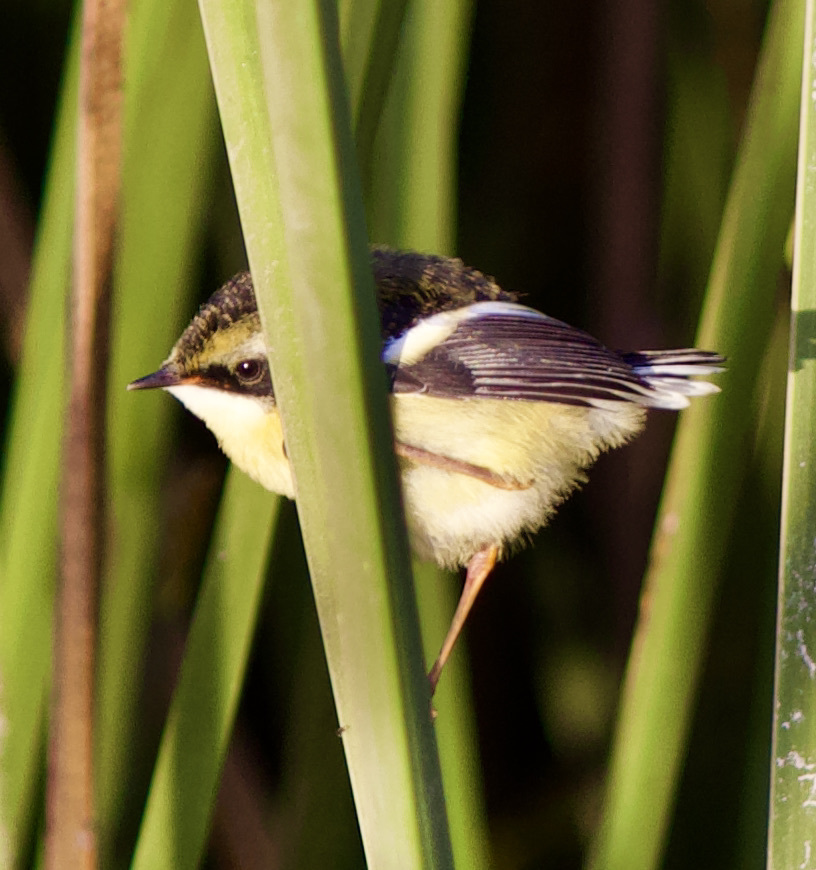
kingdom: Animalia
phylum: Chordata
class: Aves
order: Passeriformes
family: Tyrannidae
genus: Tachuris
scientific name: Tachuris rubrigastra
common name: Many-colored rush tyrant
